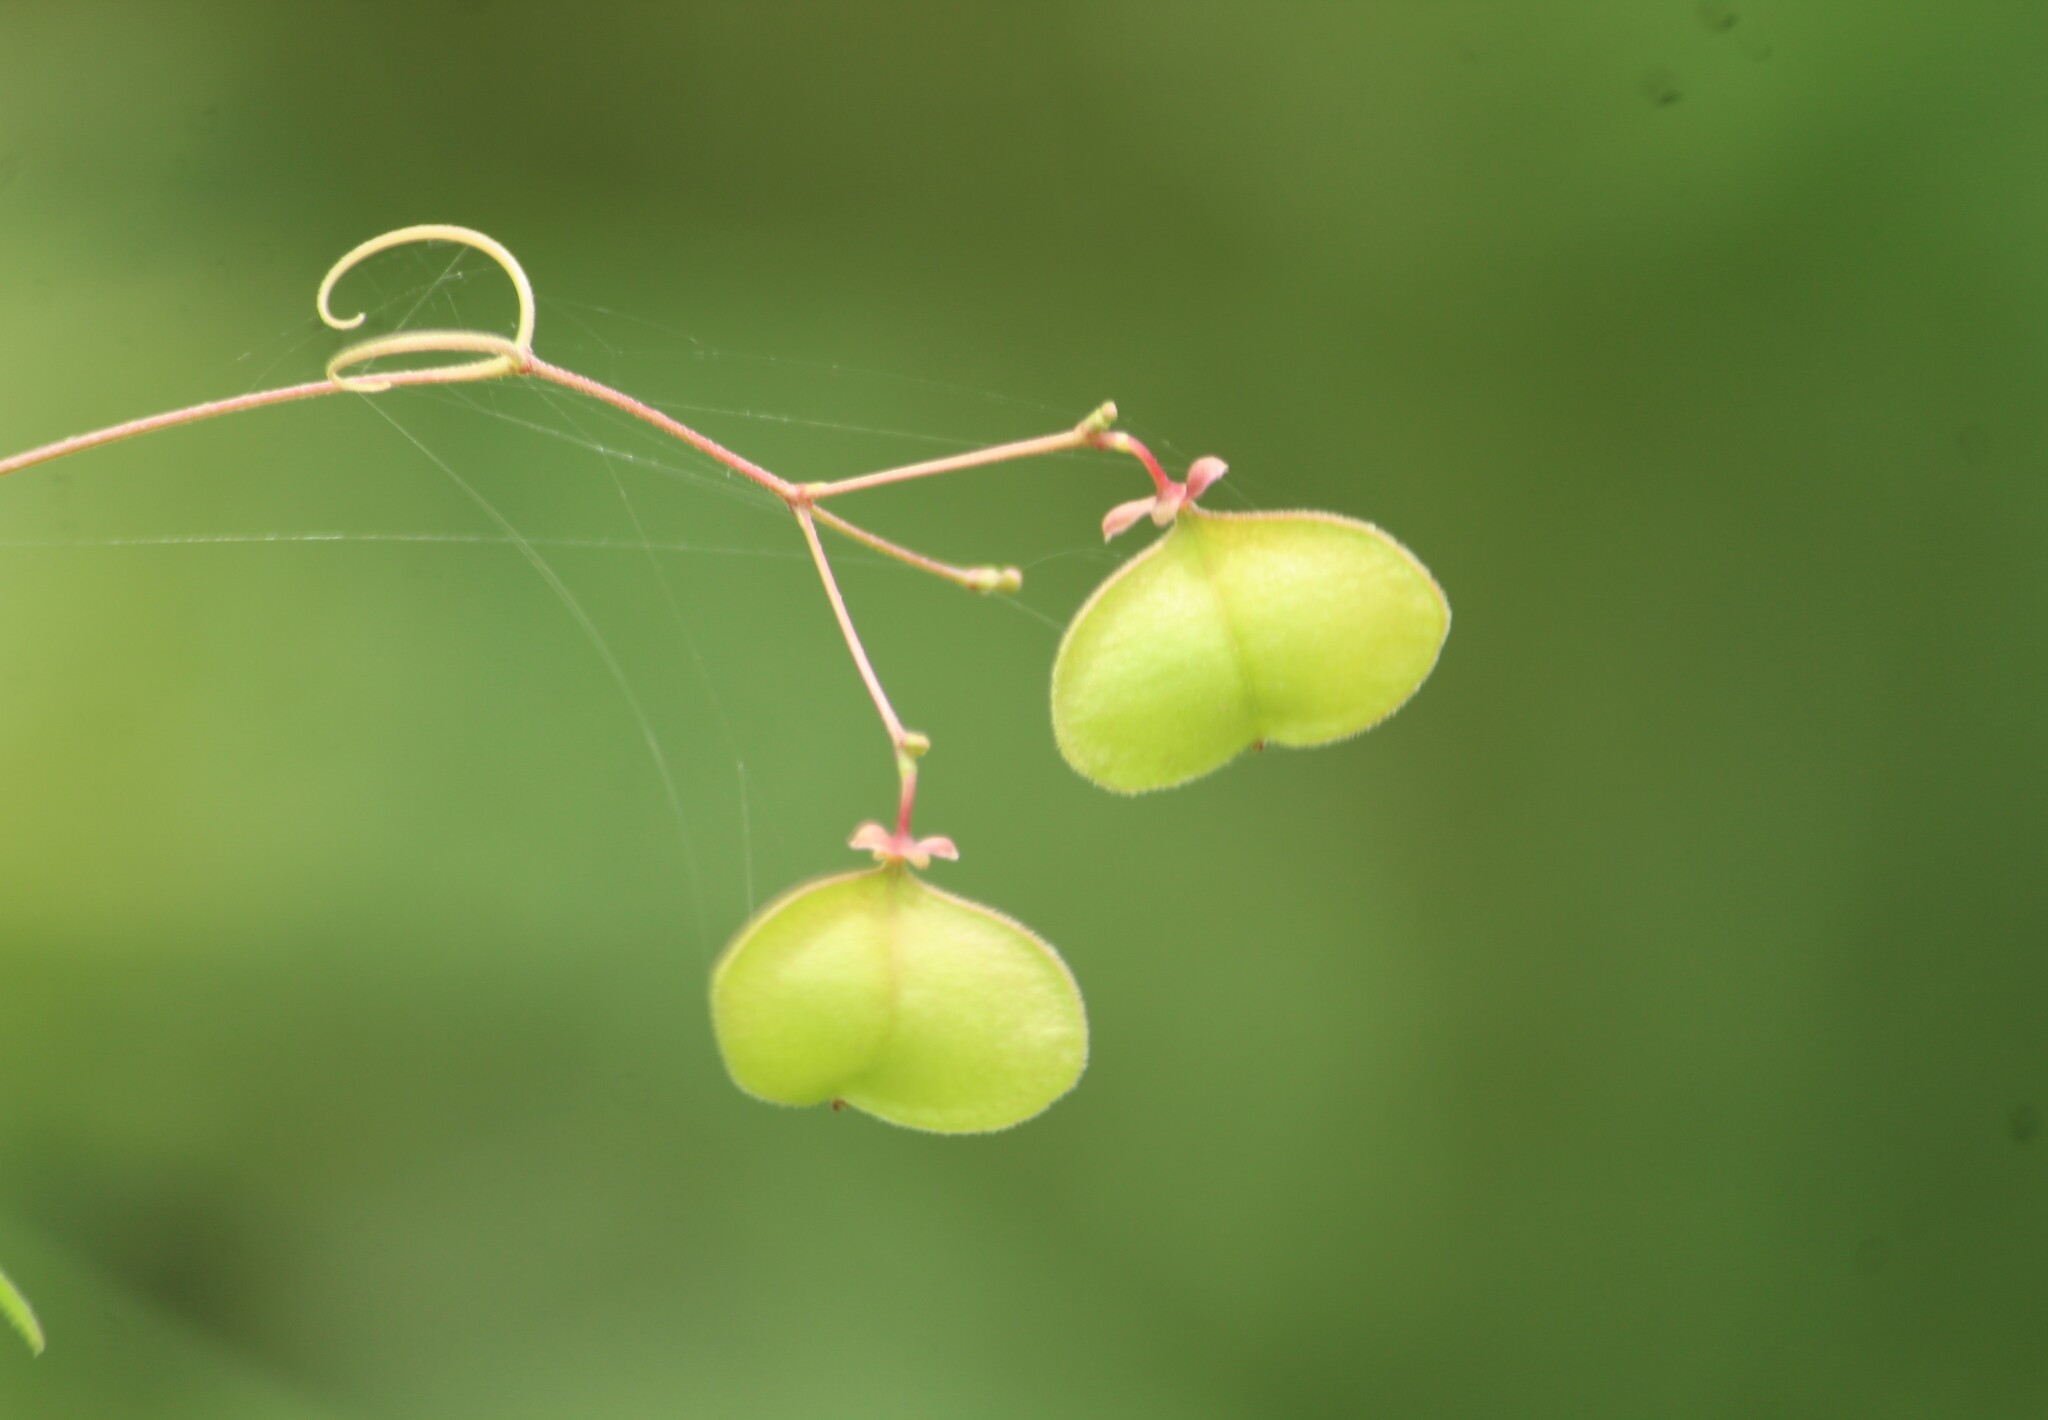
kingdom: Plantae
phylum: Tracheophyta
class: Magnoliopsida
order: Sapindales
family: Sapindaceae
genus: Cardiospermum
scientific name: Cardiospermum halicacabum
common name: Balloon vine
